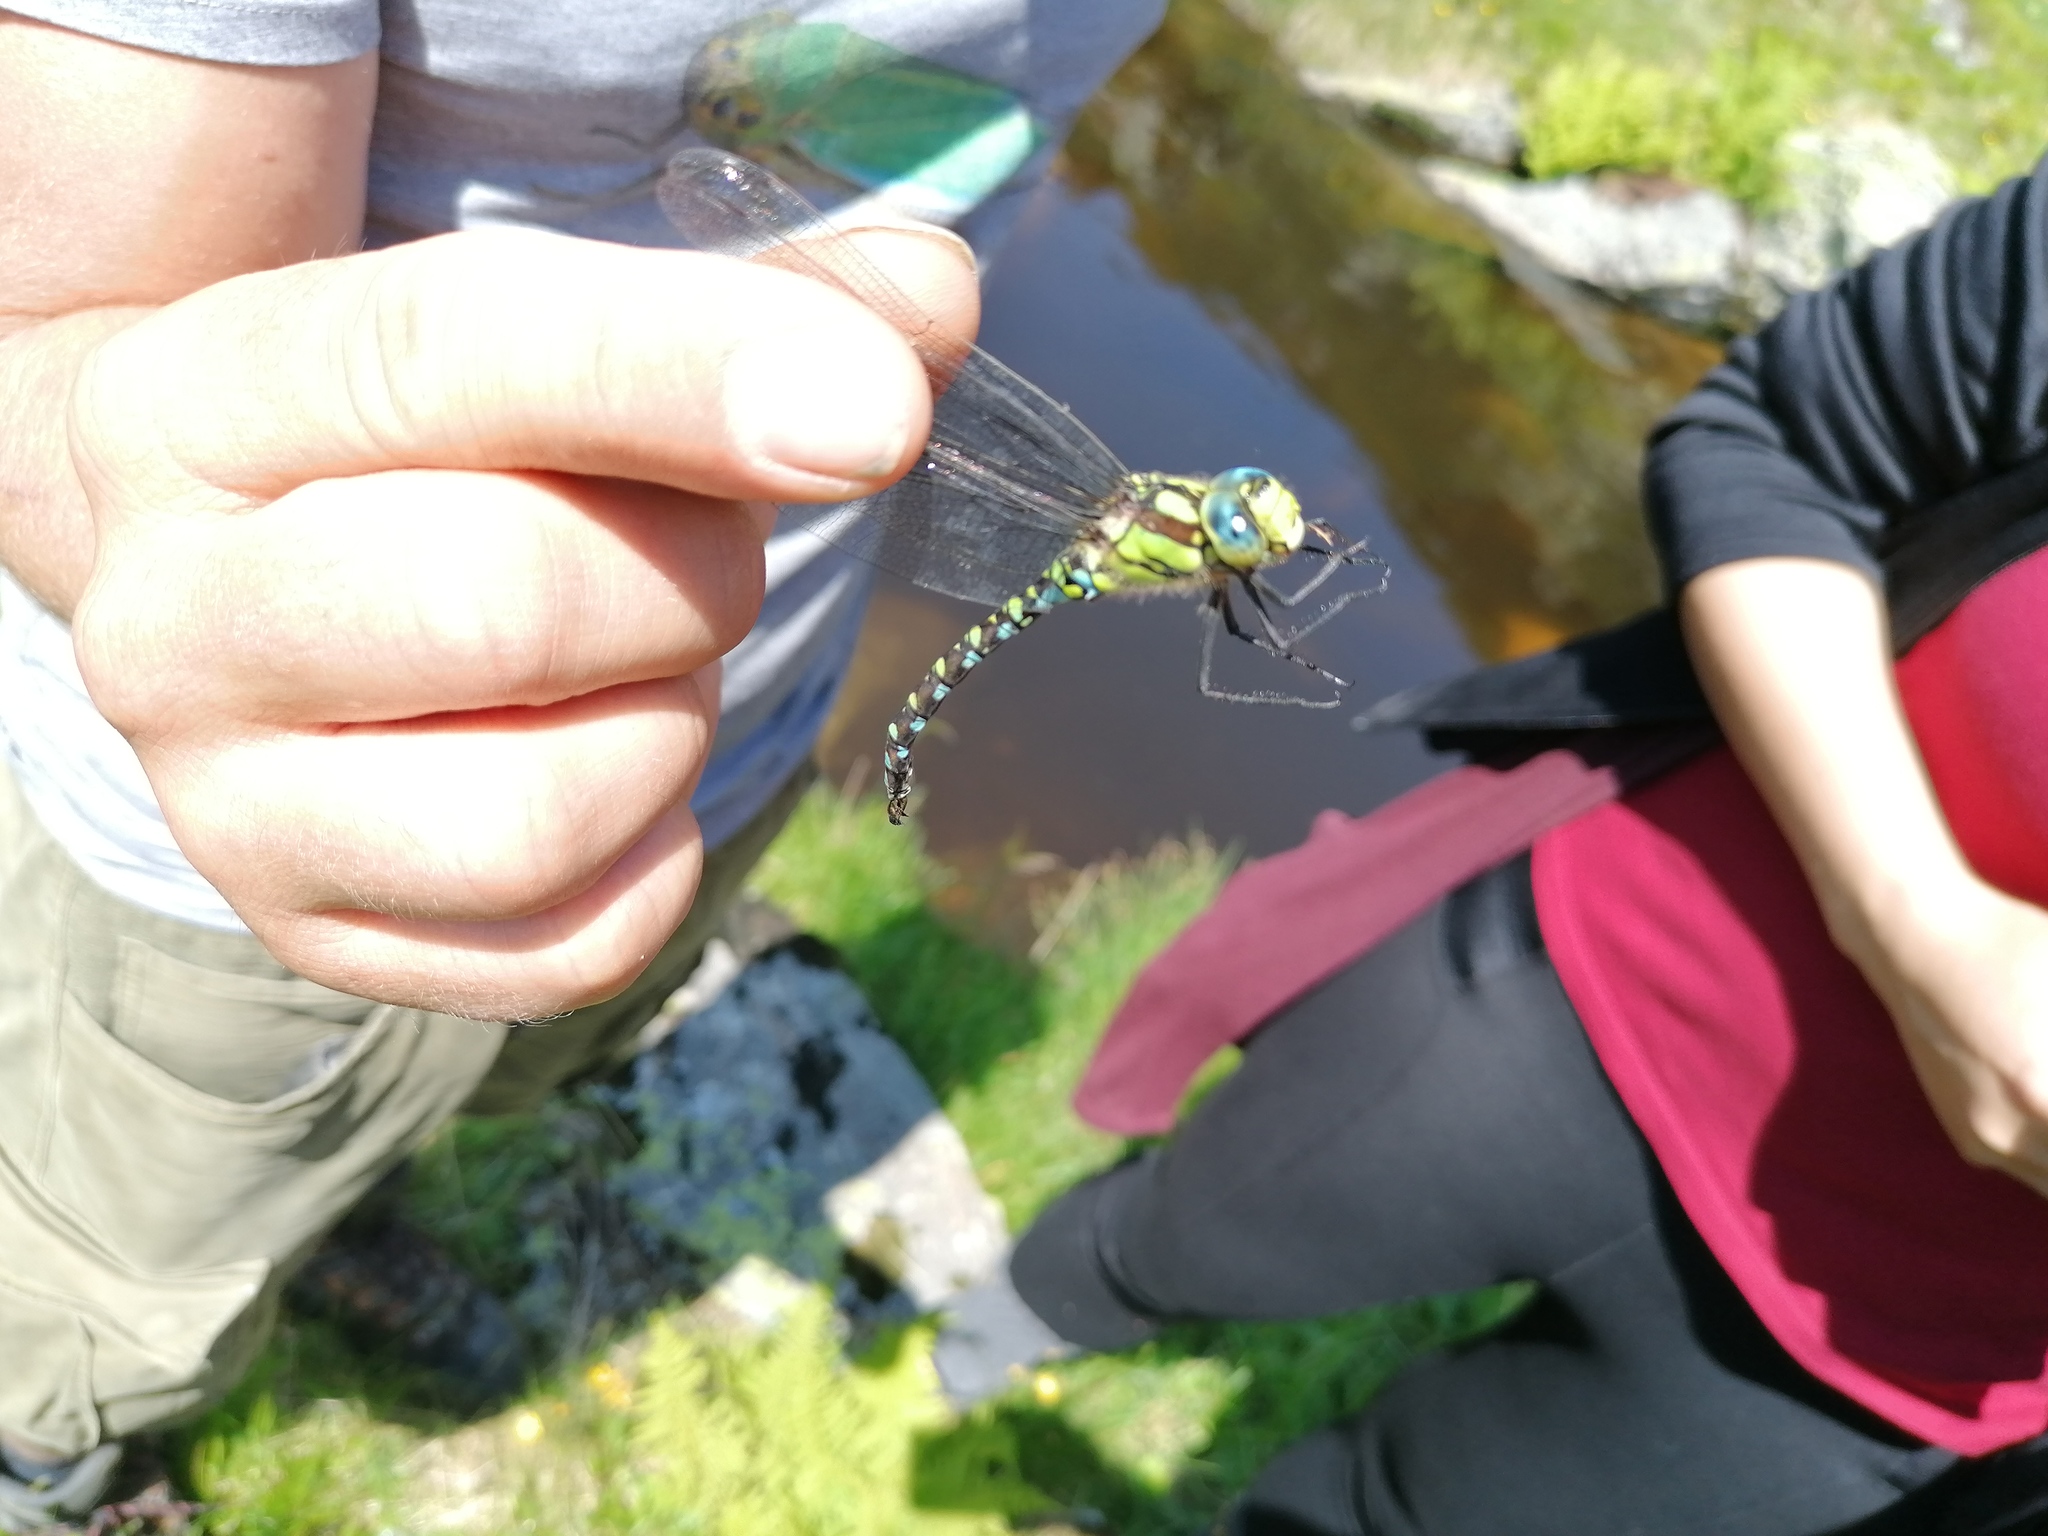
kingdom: Animalia
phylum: Arthropoda
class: Insecta
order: Odonata
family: Aeshnidae
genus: Aeshna
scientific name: Aeshna cyanea
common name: Southern hawker
